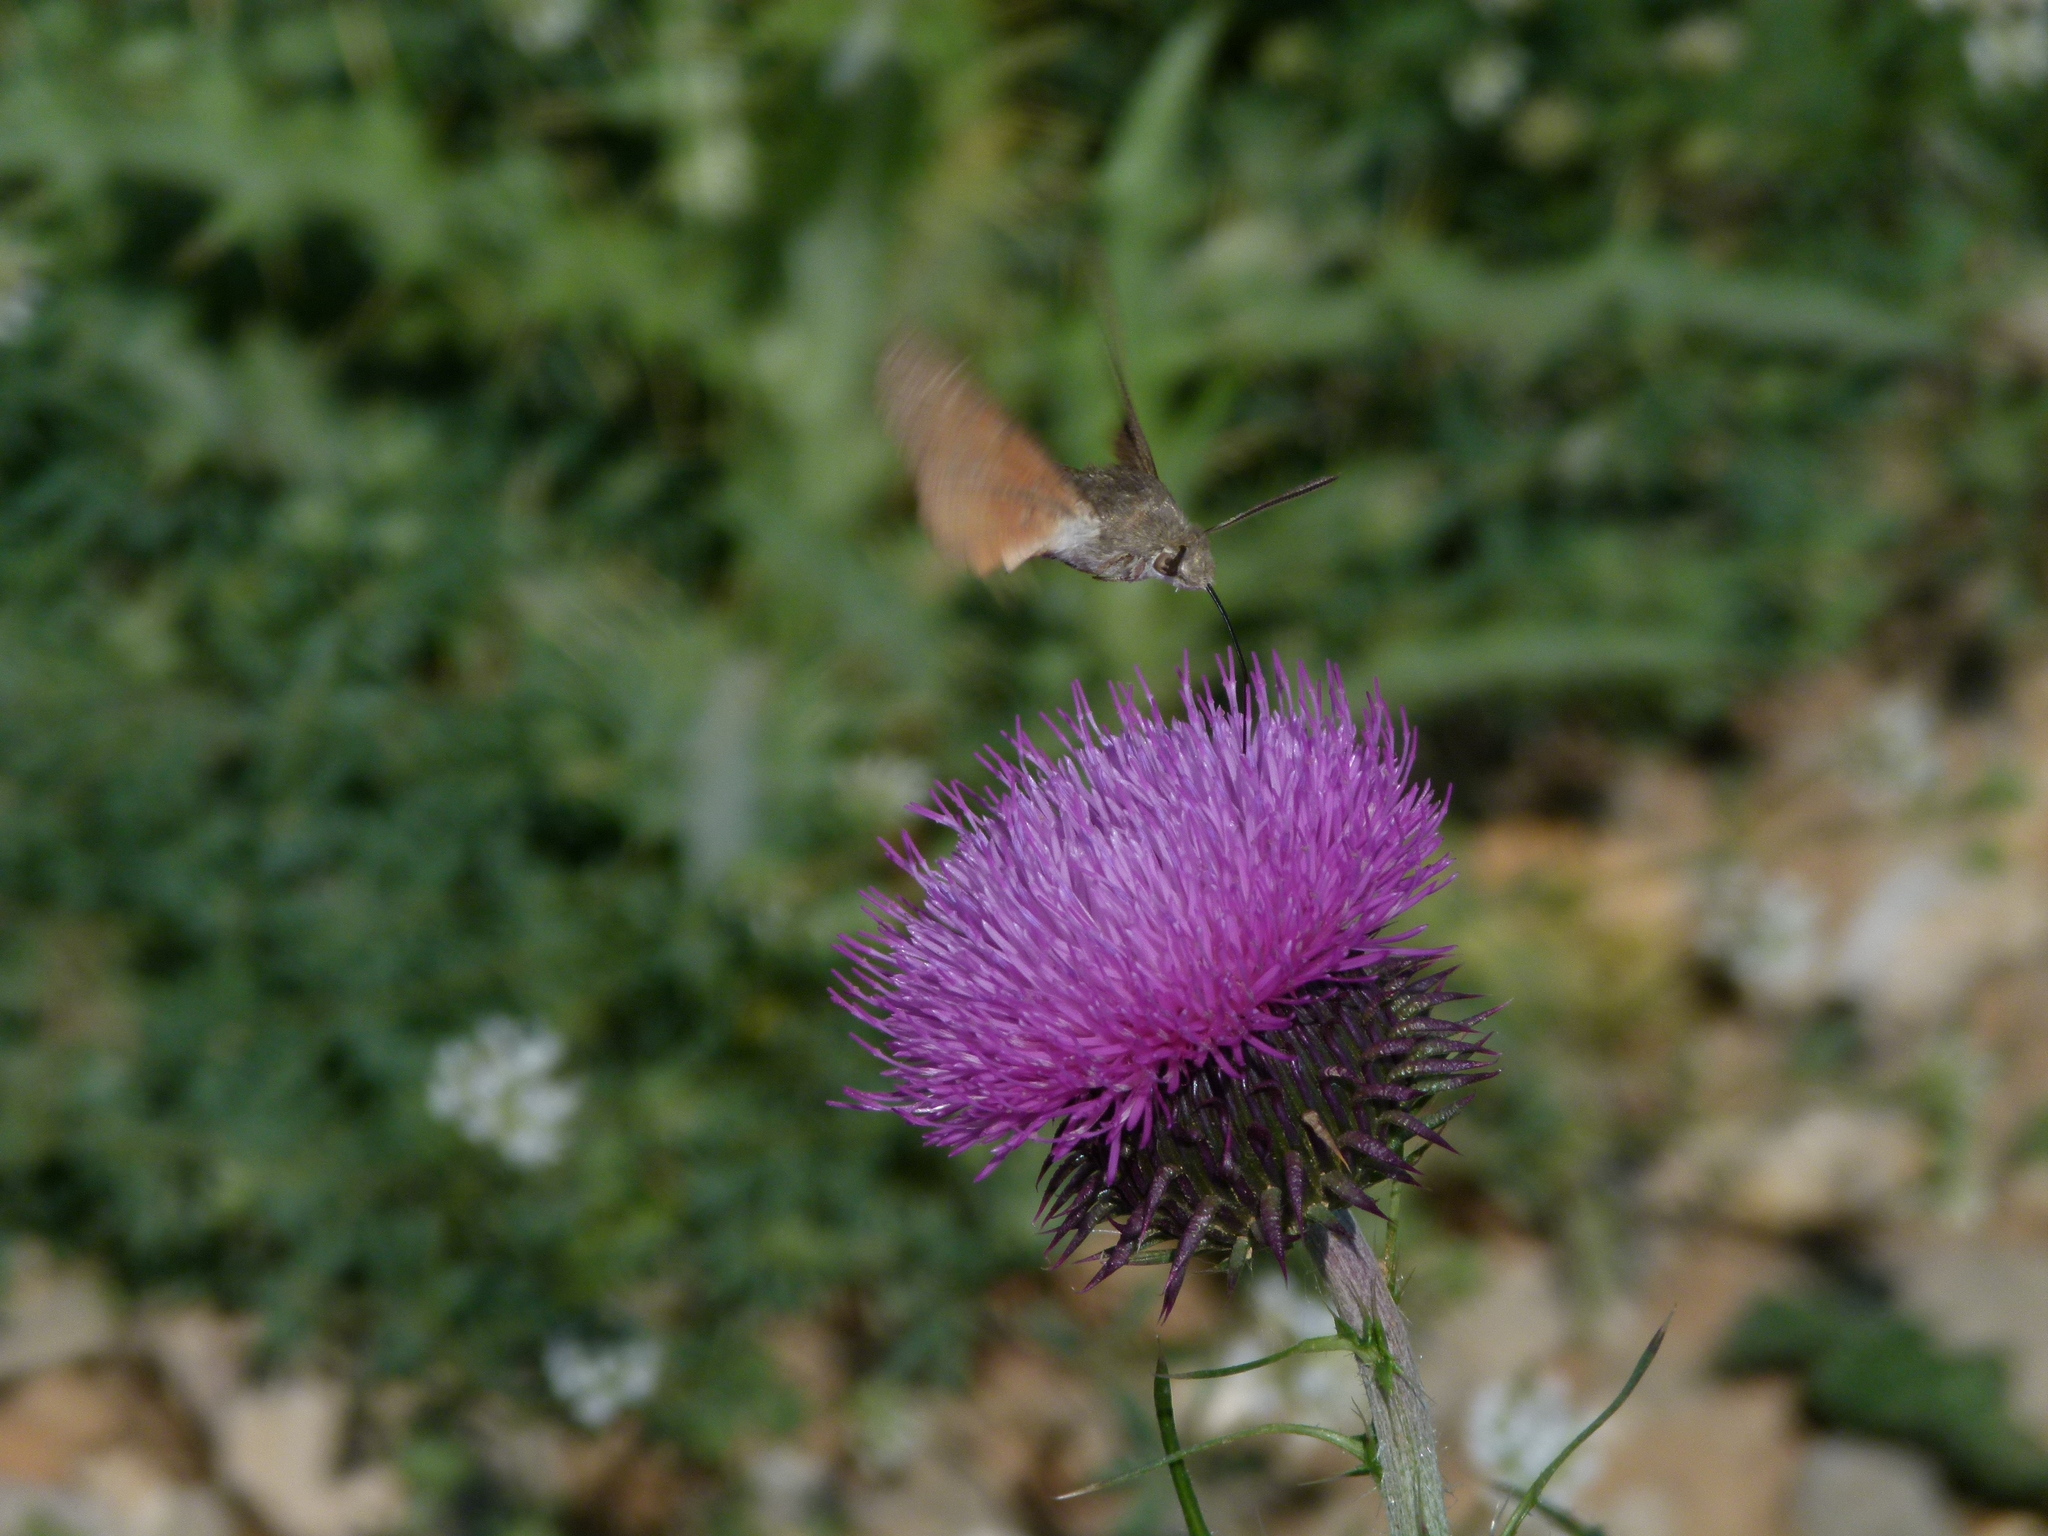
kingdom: Animalia
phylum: Arthropoda
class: Insecta
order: Lepidoptera
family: Sphingidae
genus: Macroglossum
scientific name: Macroglossum stellatarum
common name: Humming-bird hawk-moth
